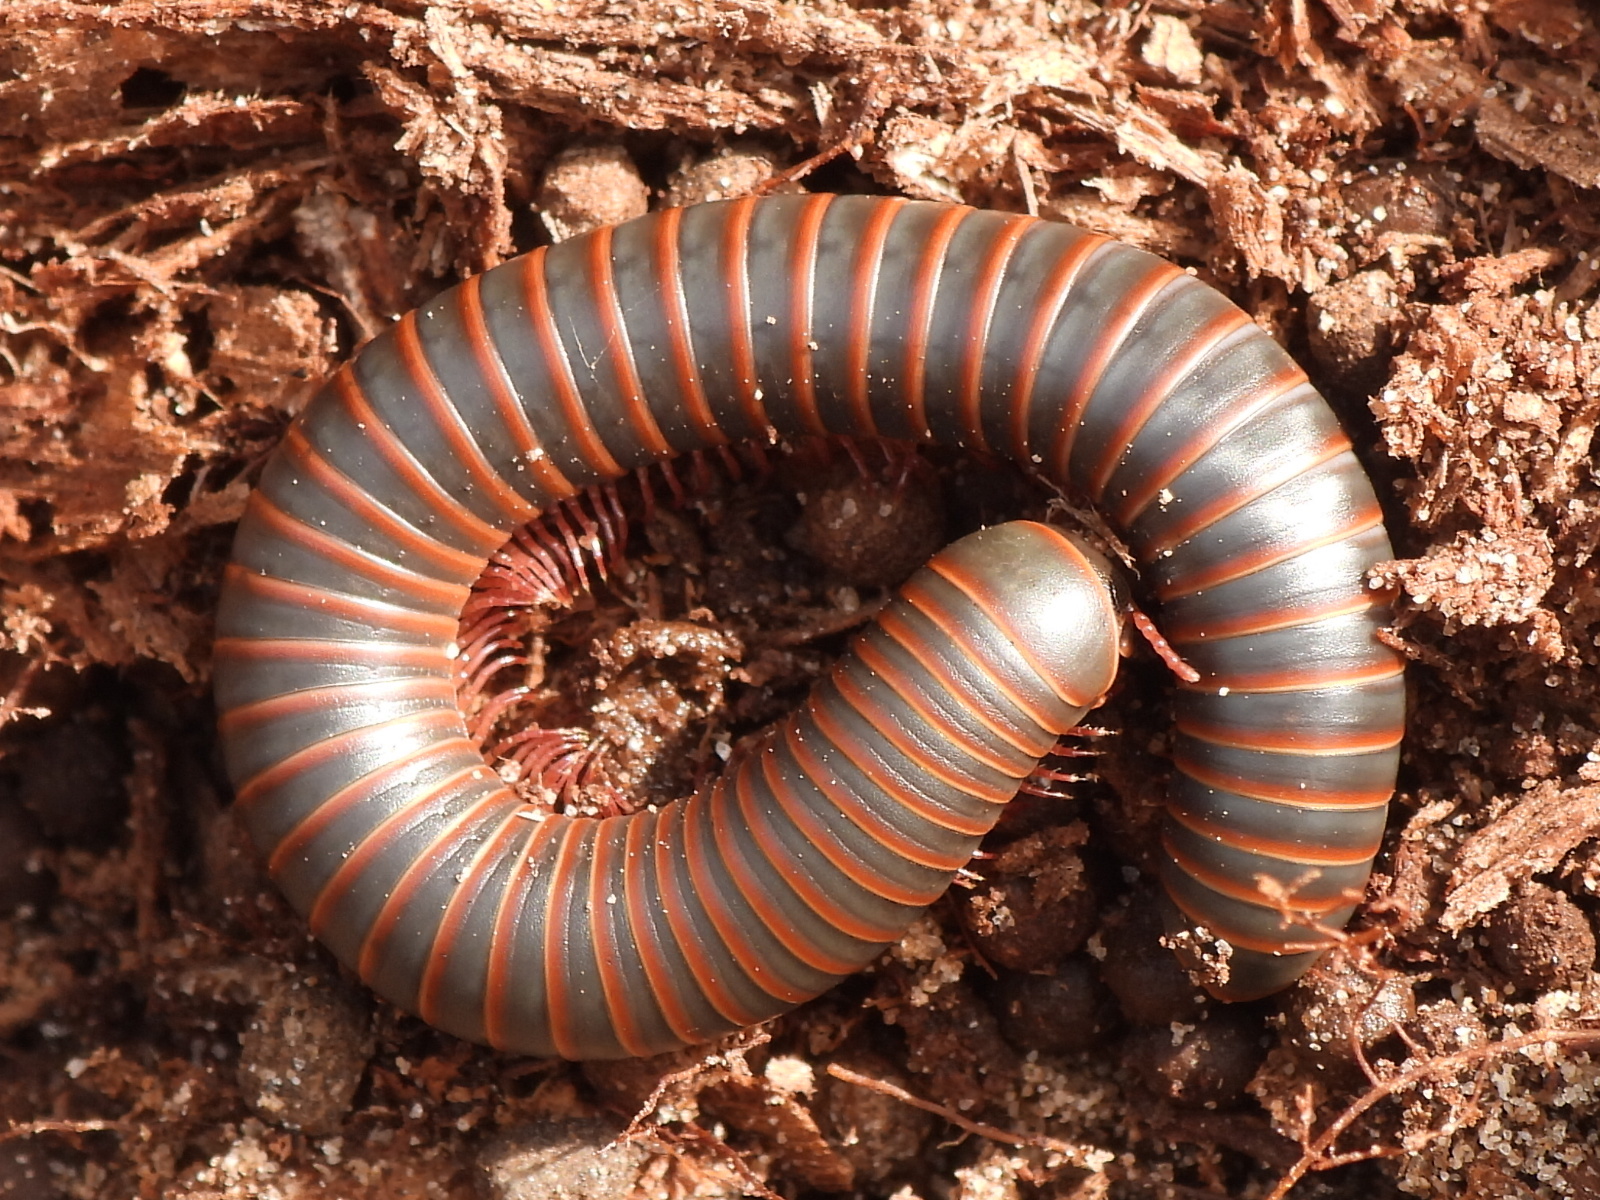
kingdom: Animalia
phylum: Arthropoda
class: Diplopoda
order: Spirobolida
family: Spirobolidae
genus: Narceus
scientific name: Narceus americanus
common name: American giant millipede
